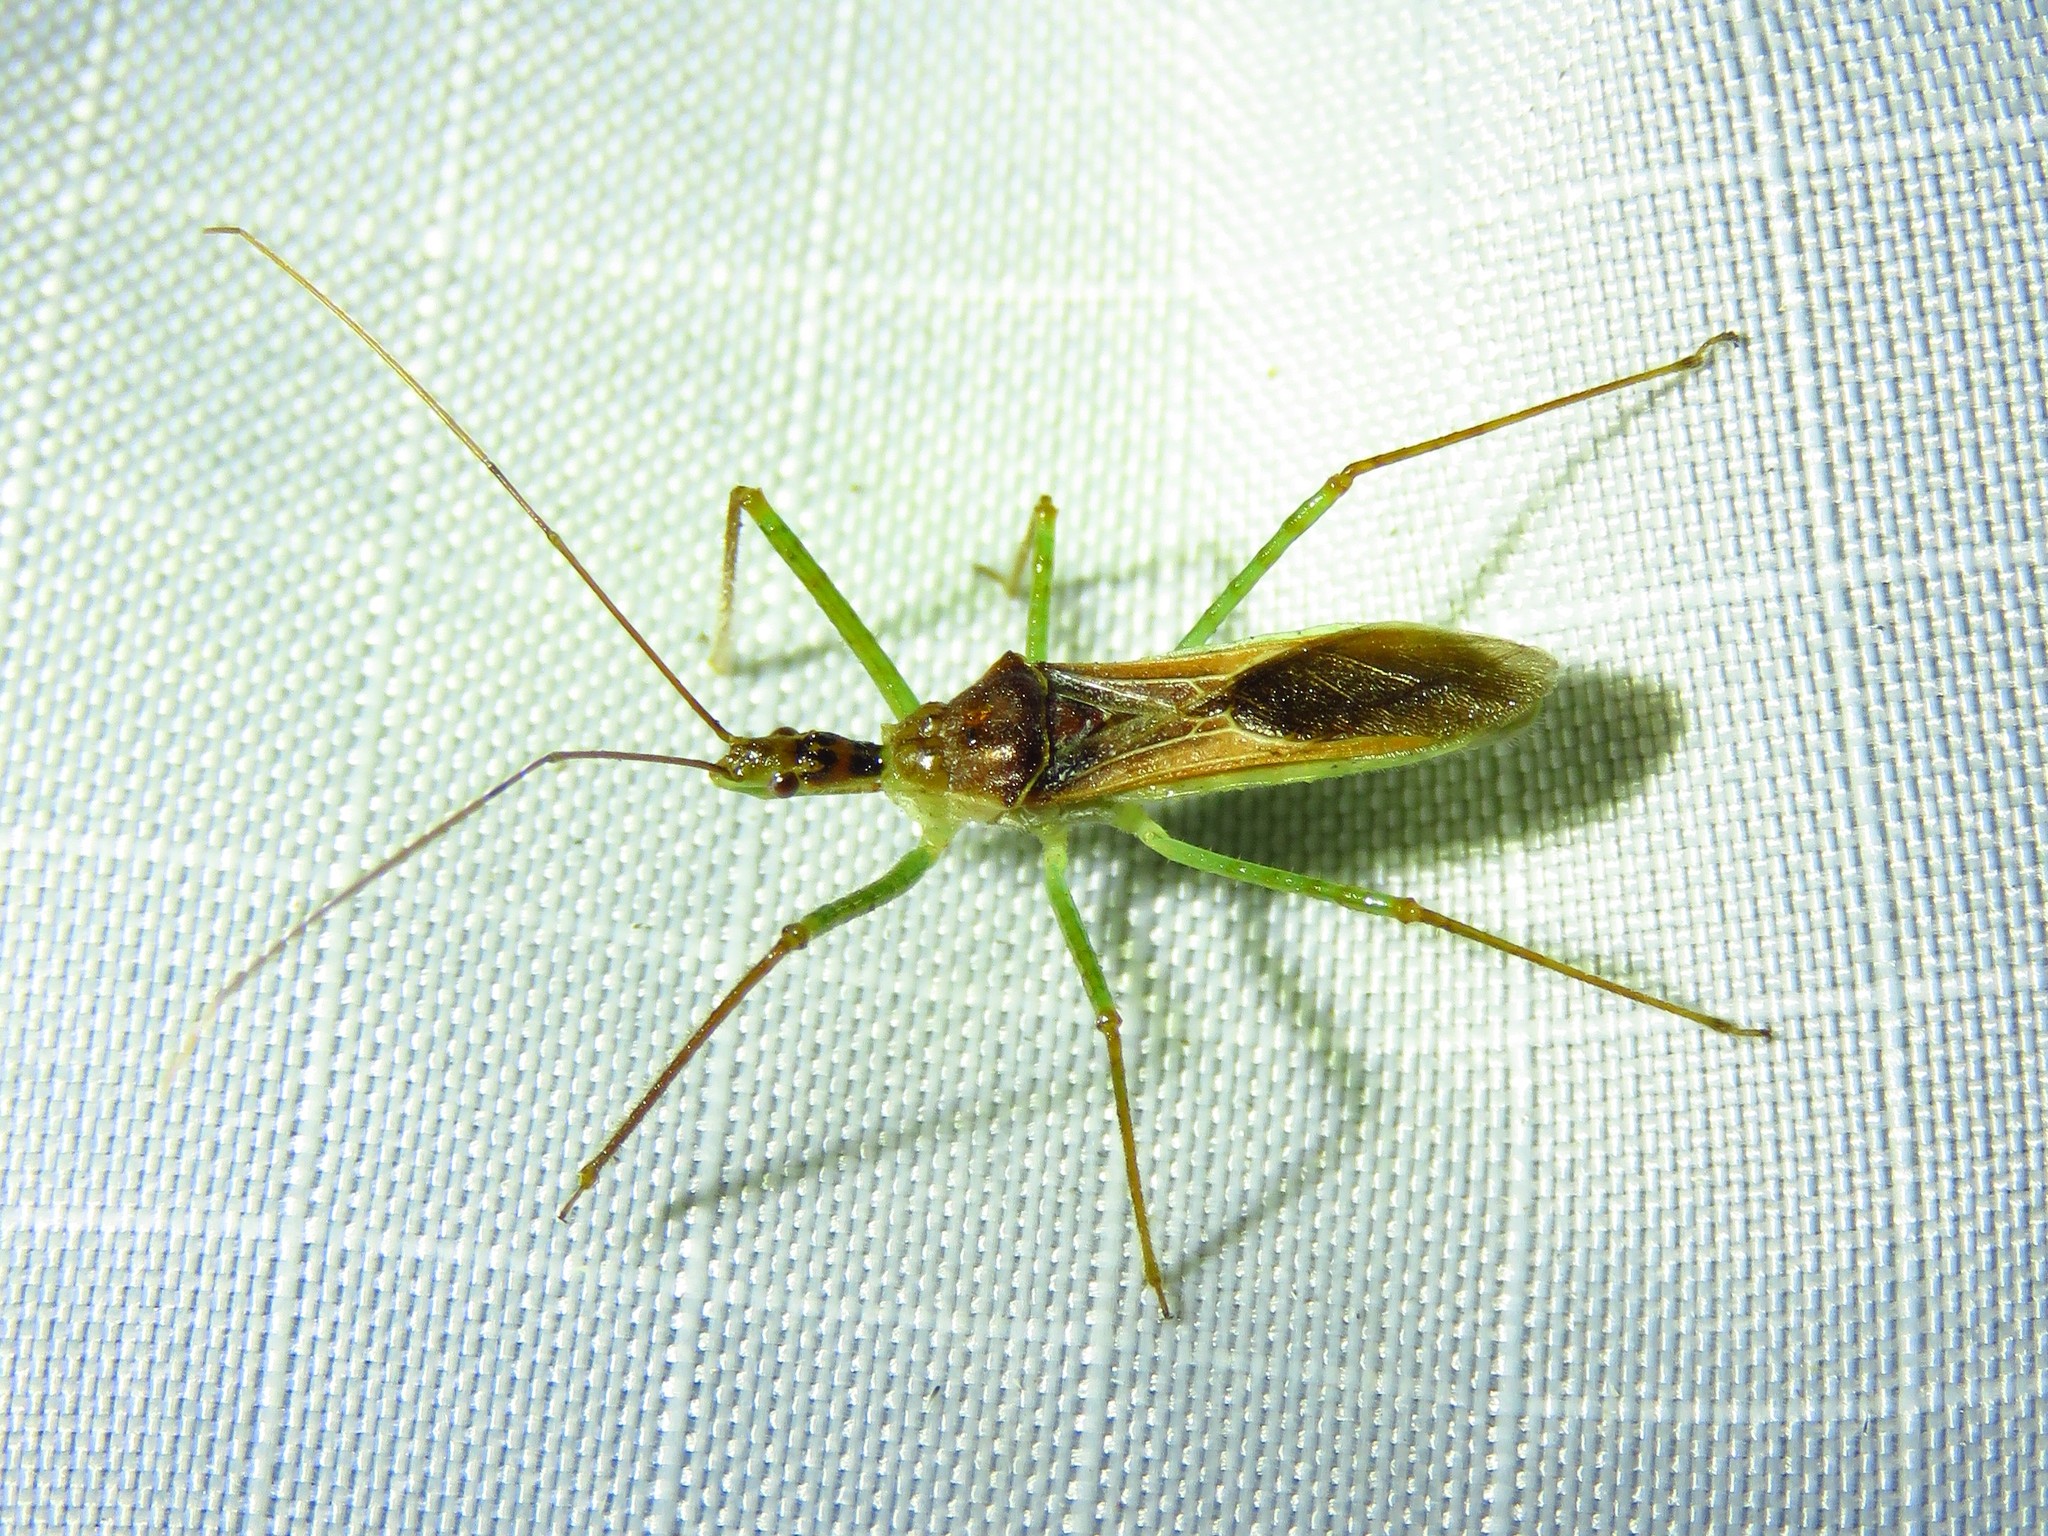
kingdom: Animalia
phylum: Arthropoda
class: Insecta
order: Hemiptera
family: Reduviidae
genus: Zelus
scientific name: Zelus renardii
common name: Assassin bug
